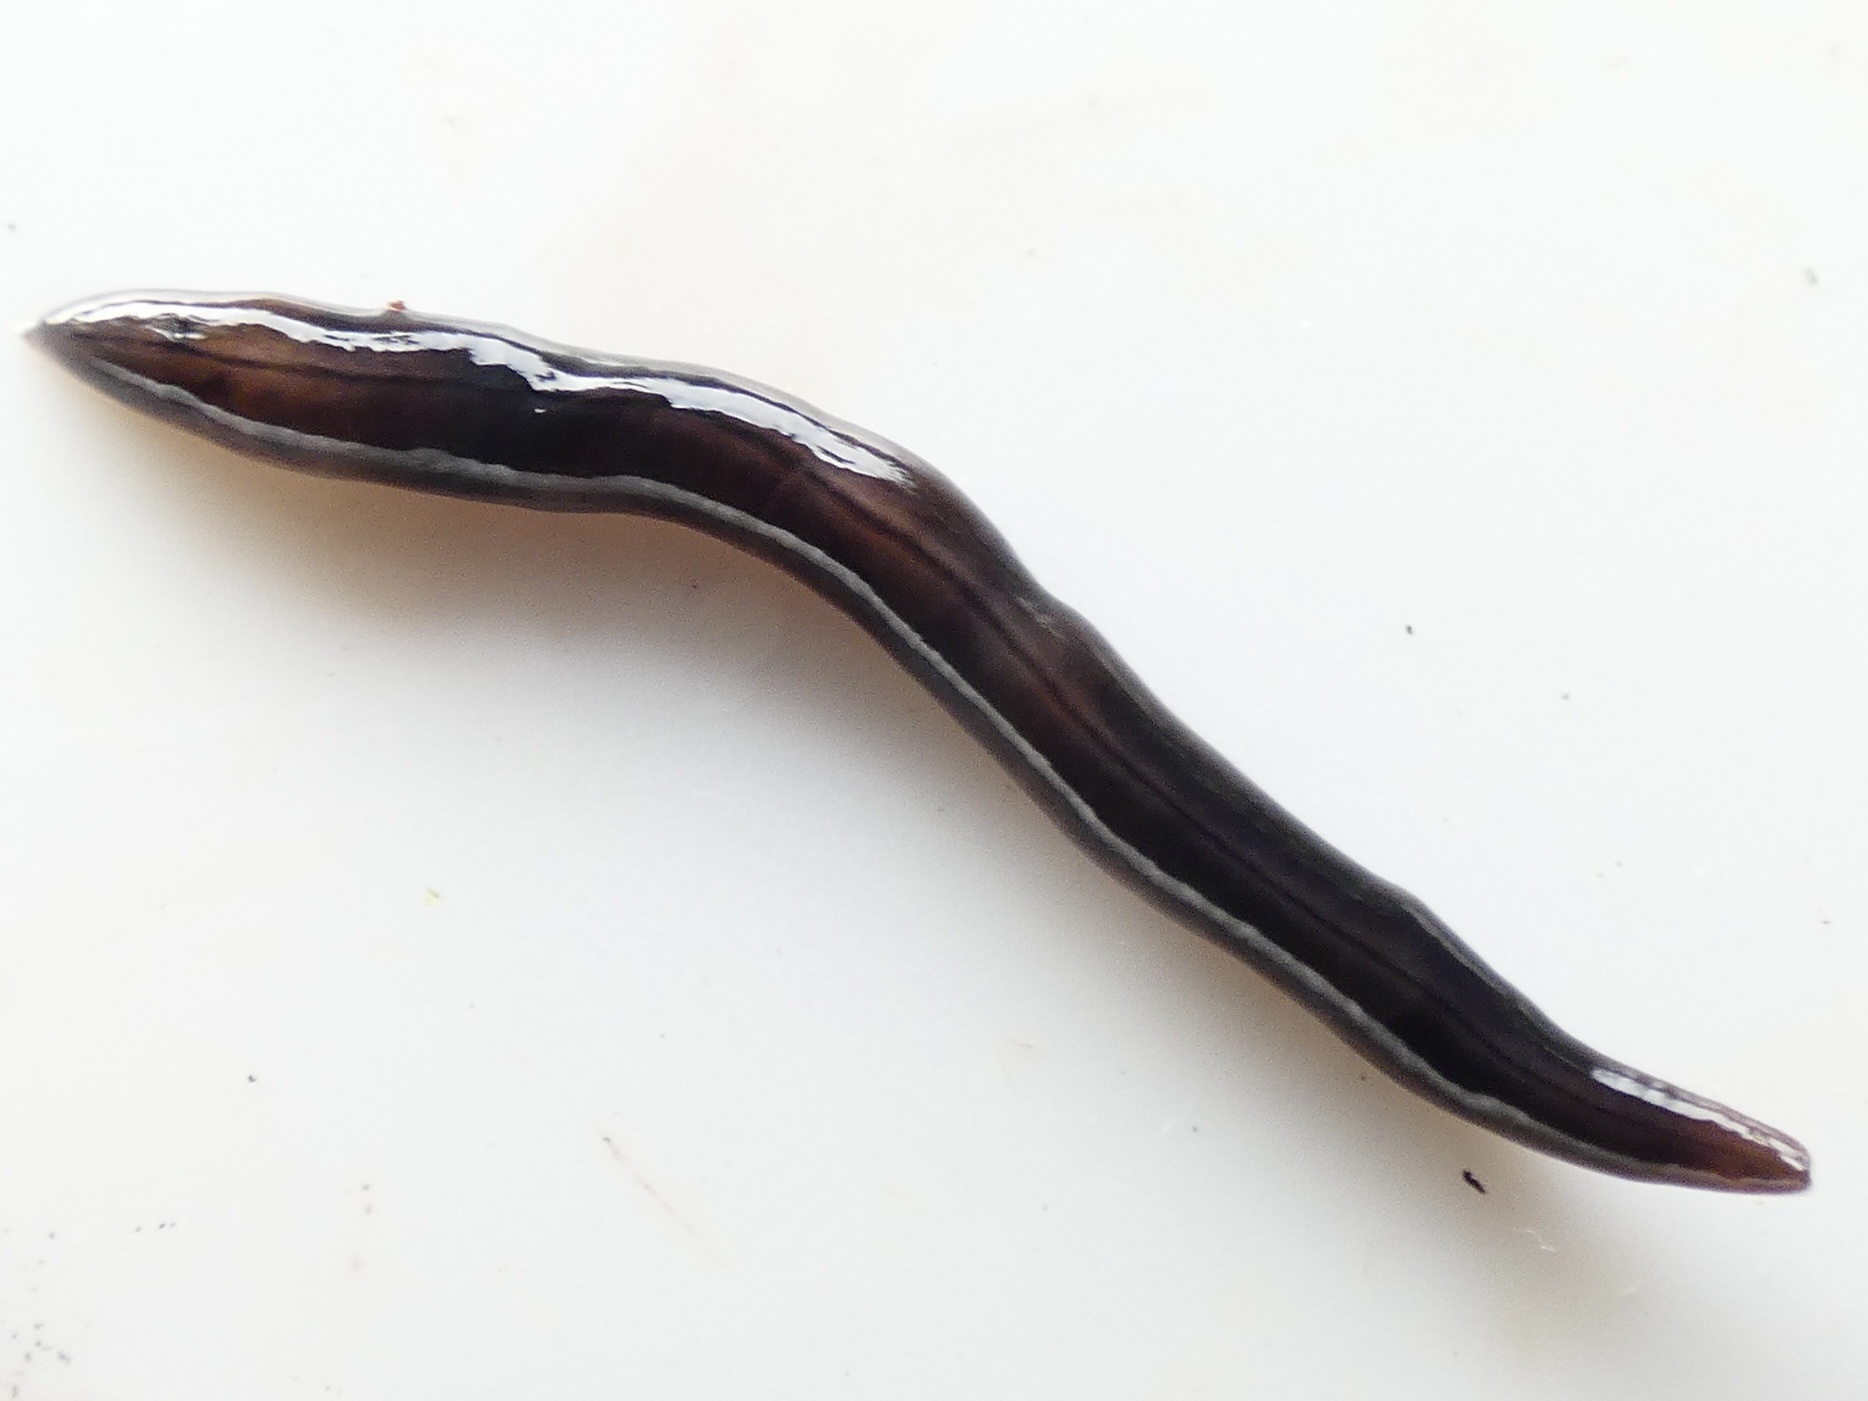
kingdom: Animalia
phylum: Platyhelminthes
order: Tricladida
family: Geoplanidae
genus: Parakontikia
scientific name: Parakontikia ventrolineata
